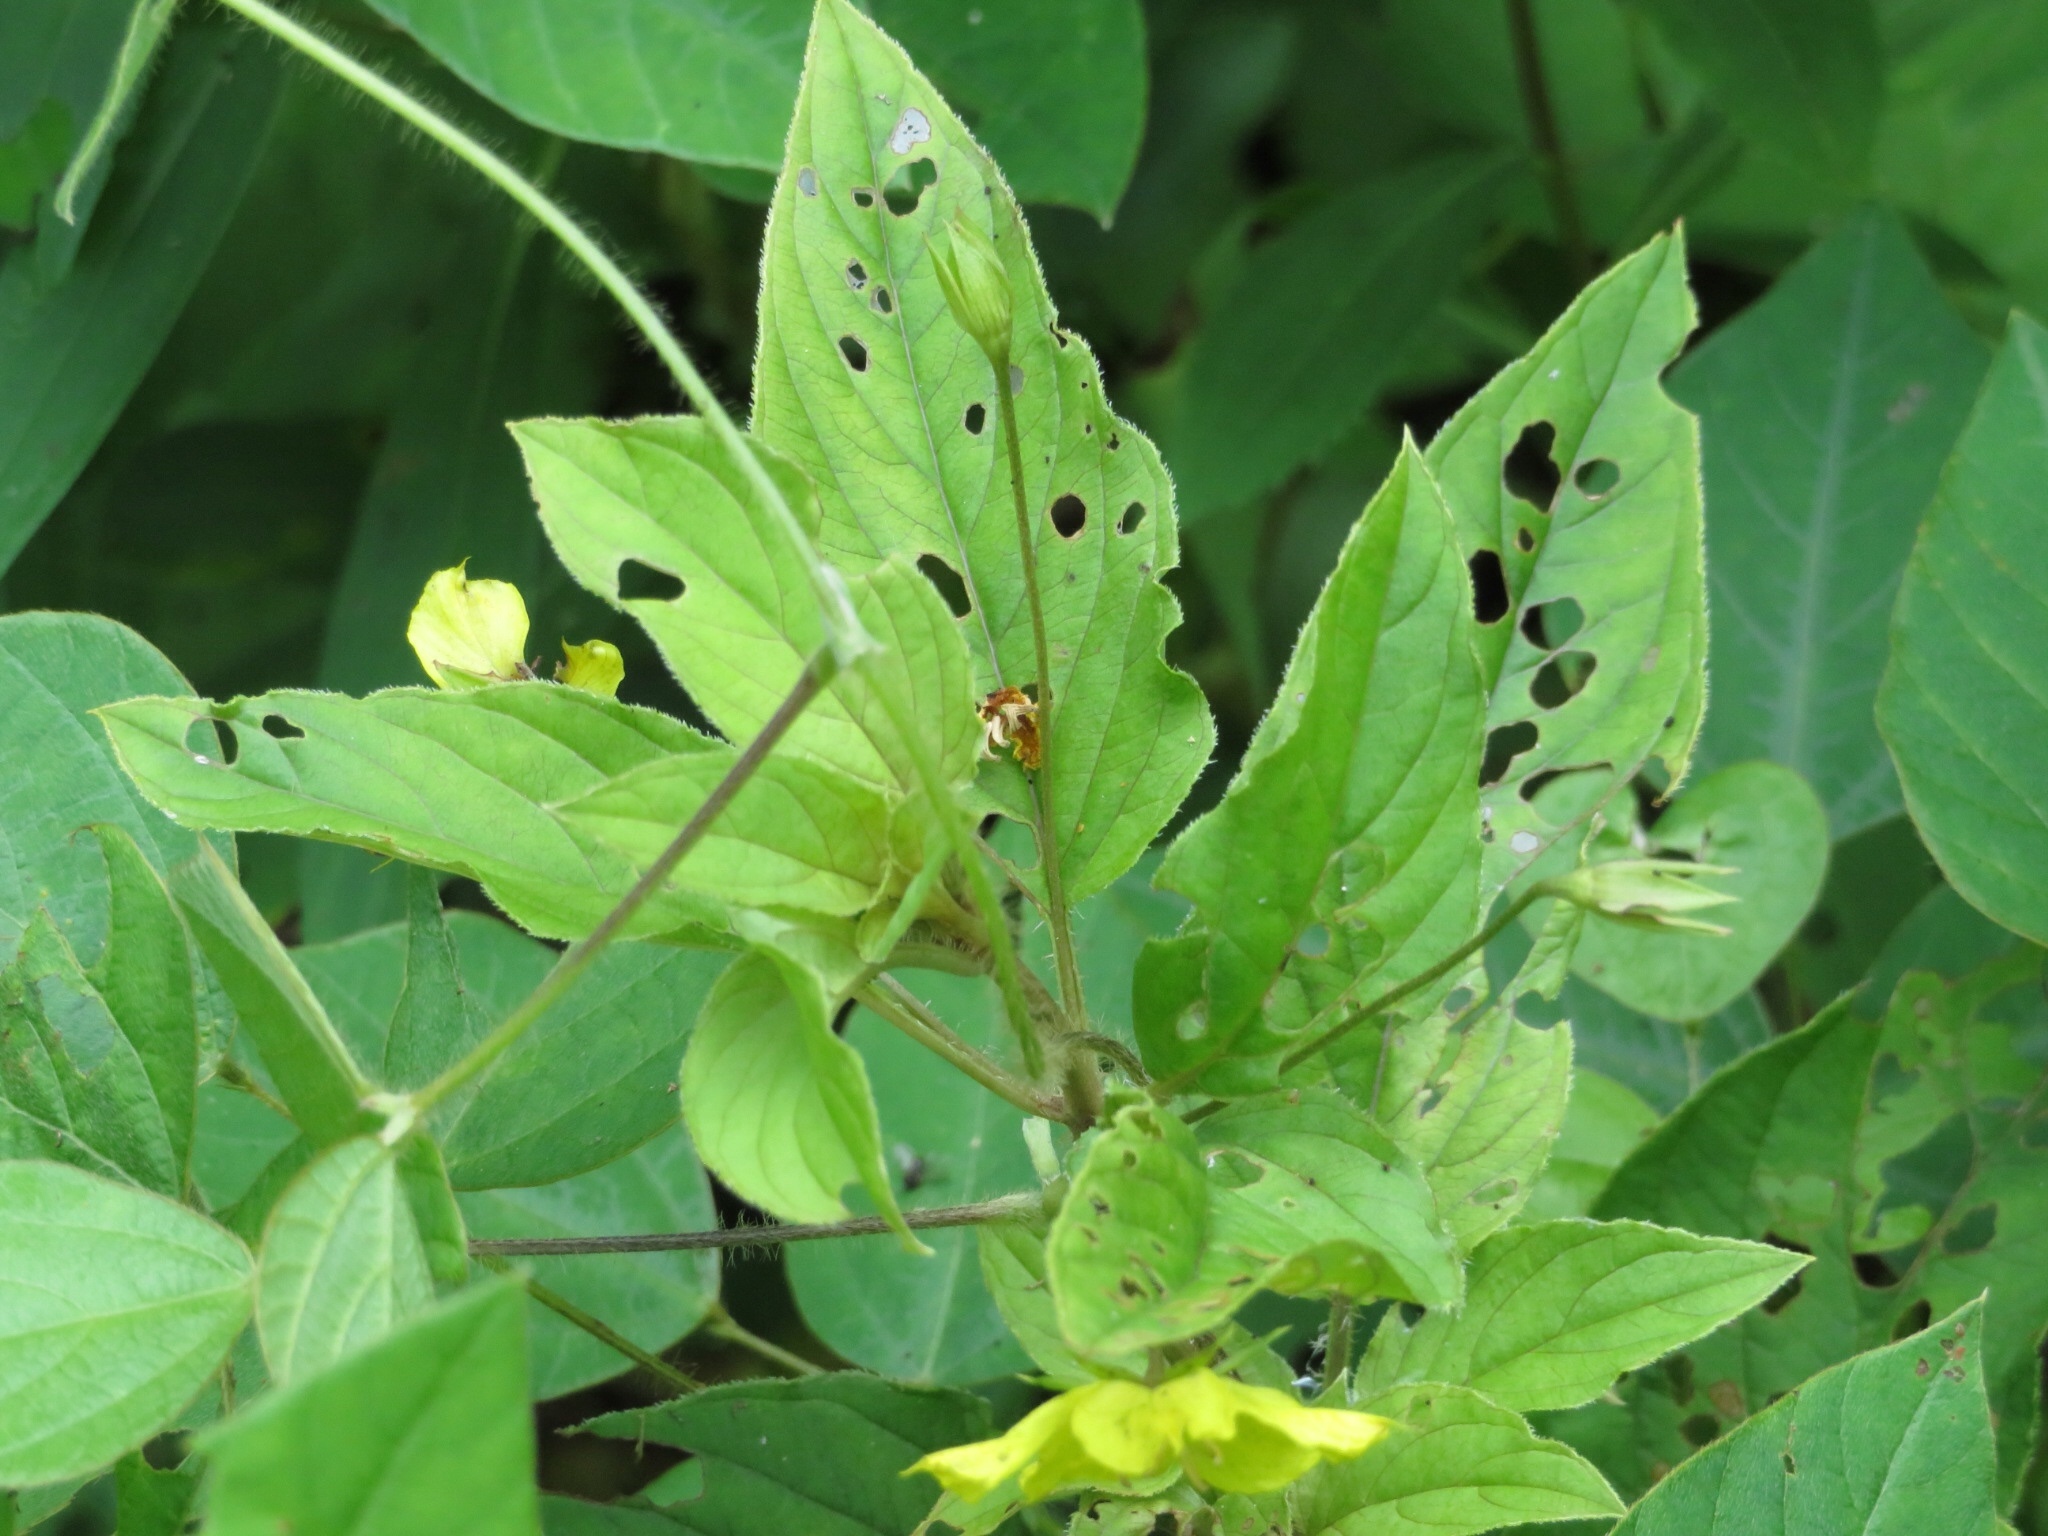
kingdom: Plantae
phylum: Tracheophyta
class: Magnoliopsida
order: Ericales
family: Primulaceae
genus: Lysimachia
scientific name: Lysimachia ciliata
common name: Fringed loosestrife
